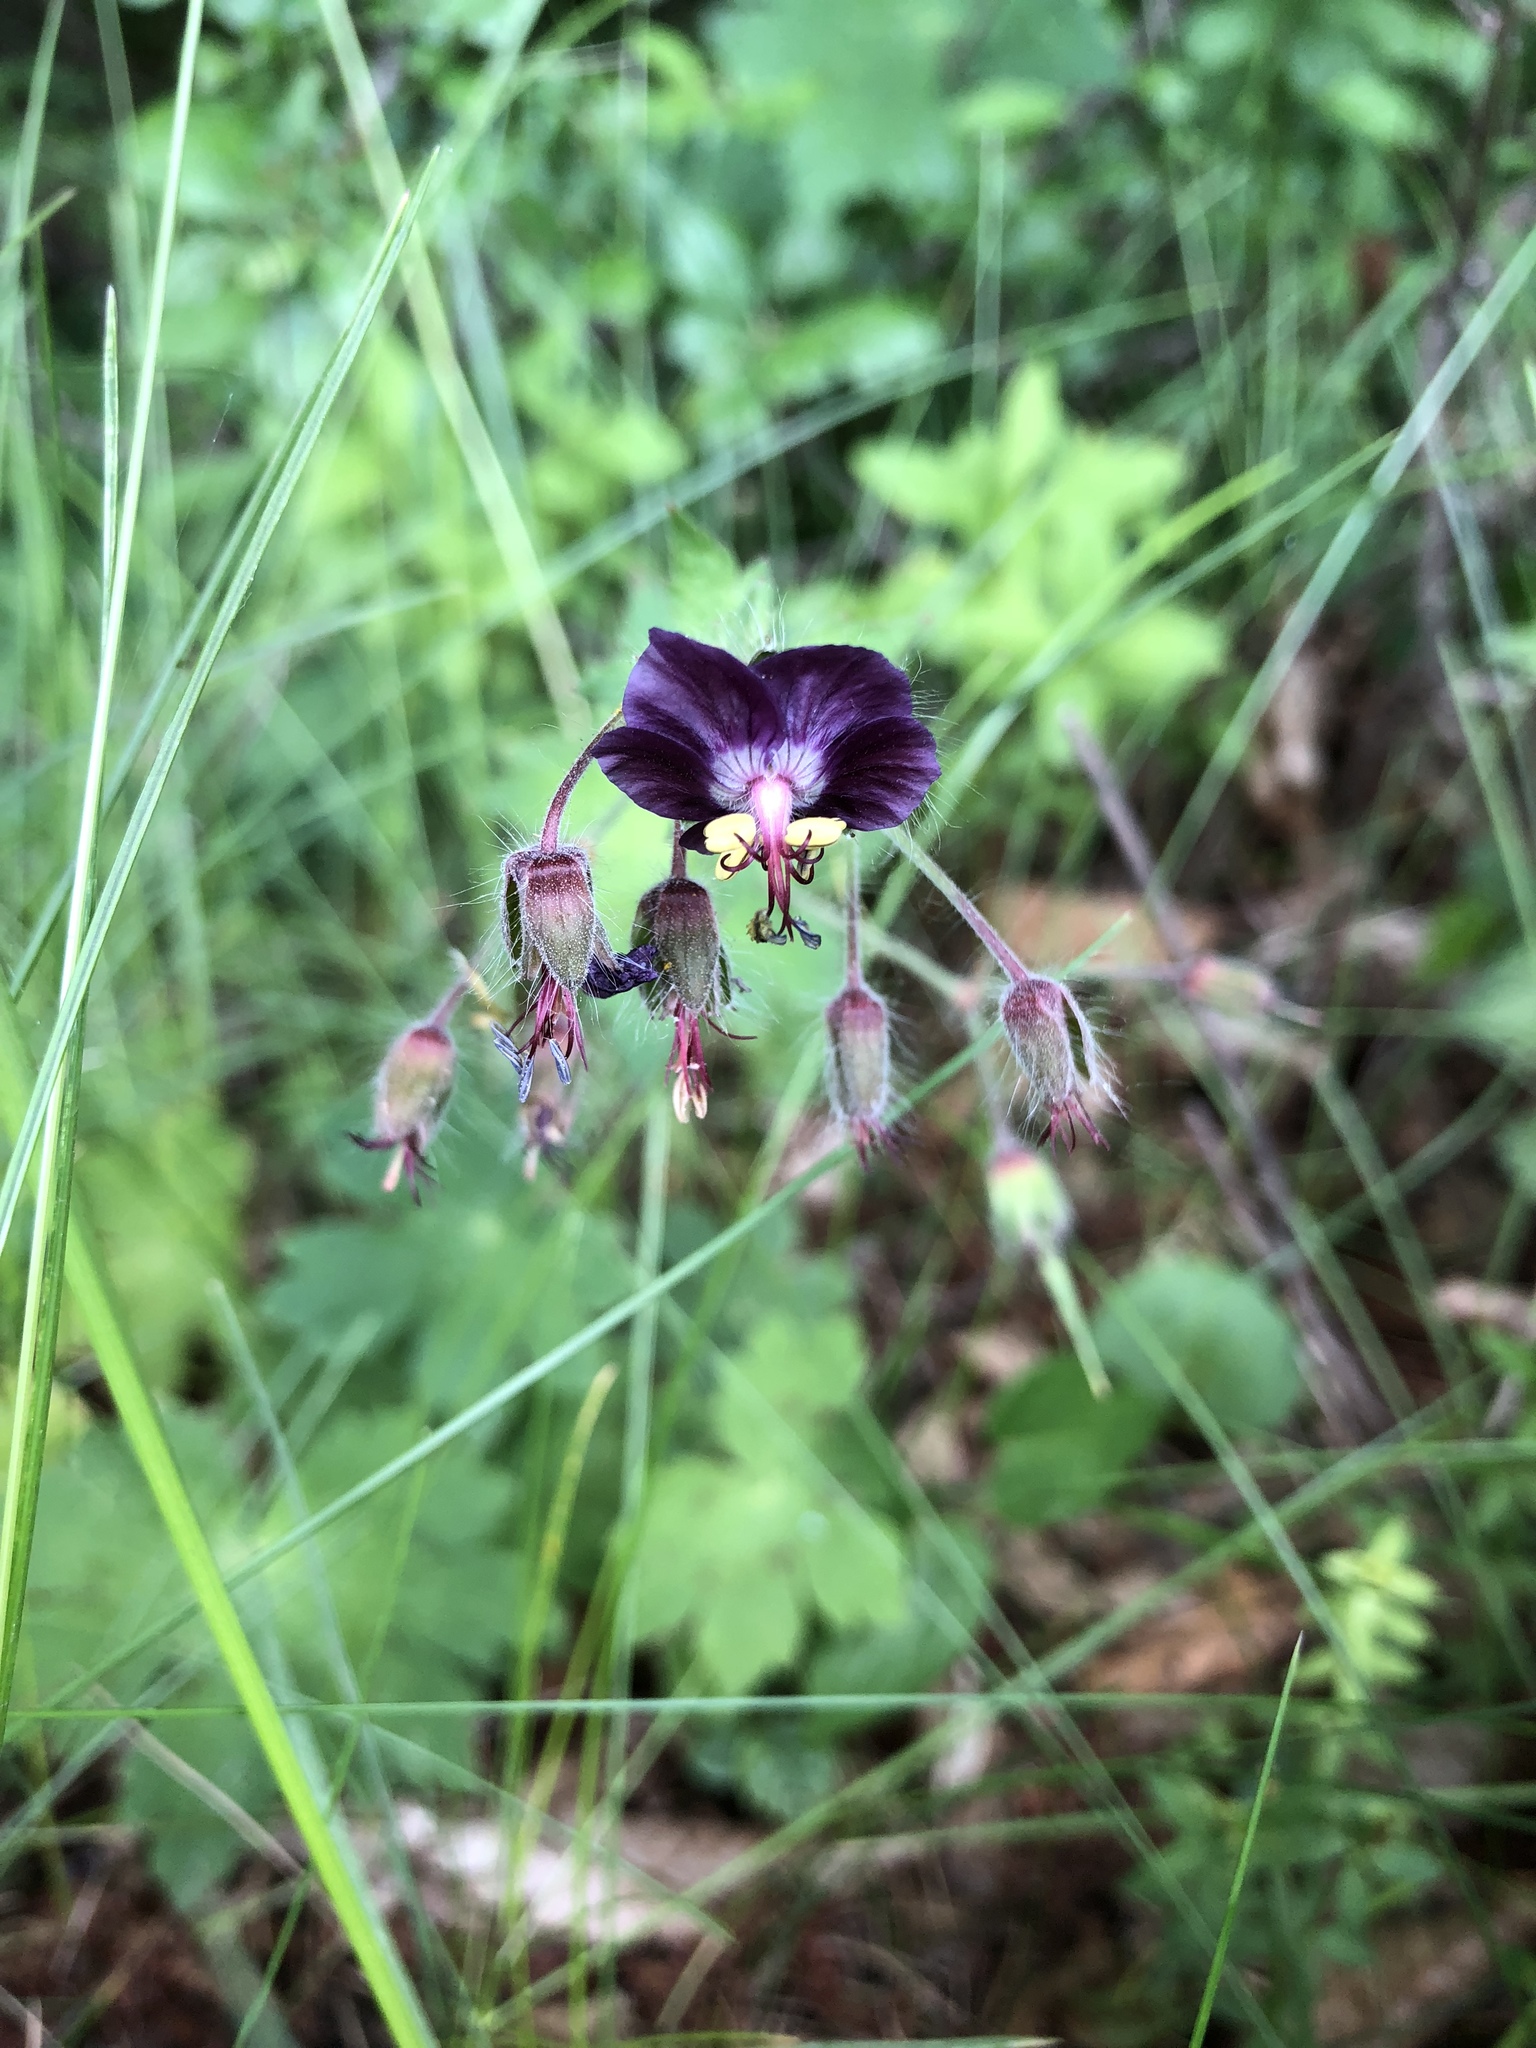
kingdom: Plantae
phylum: Tracheophyta
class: Magnoliopsida
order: Geraniales
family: Geraniaceae
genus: Geranium
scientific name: Geranium phaeum
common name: Dusky crane's-bill
